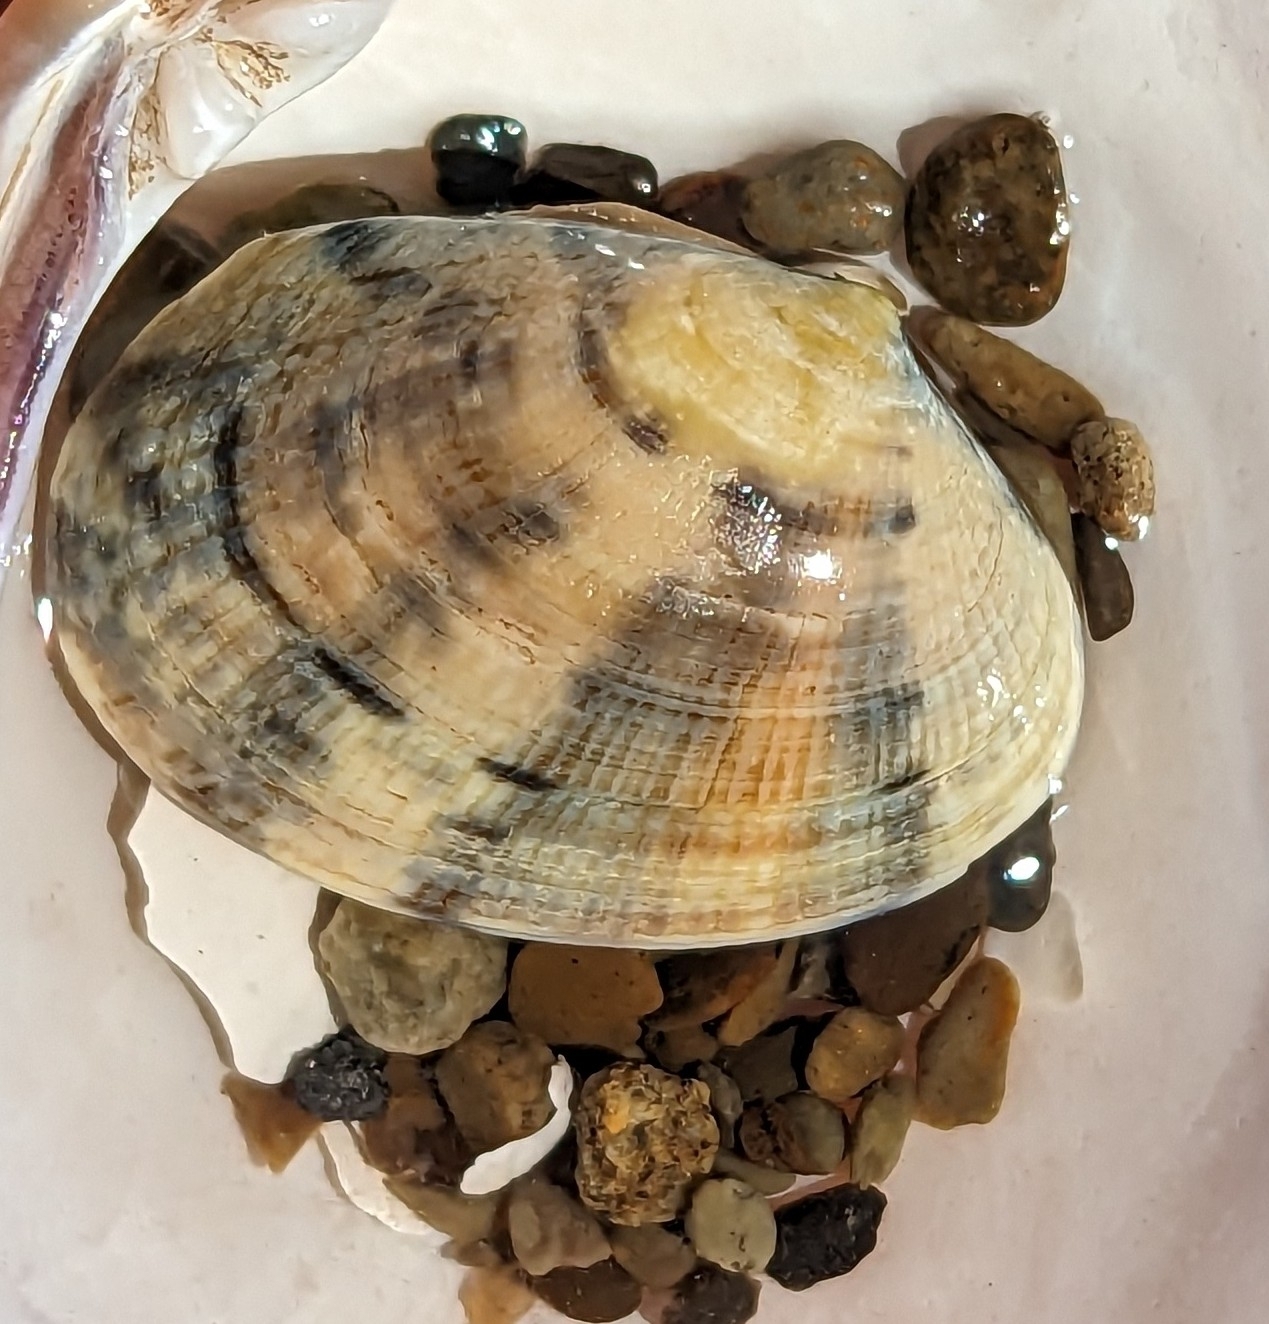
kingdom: Animalia
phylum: Mollusca
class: Bivalvia
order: Venerida
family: Veneridae
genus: Ruditapes
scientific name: Ruditapes philippinarum
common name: Manila clam
